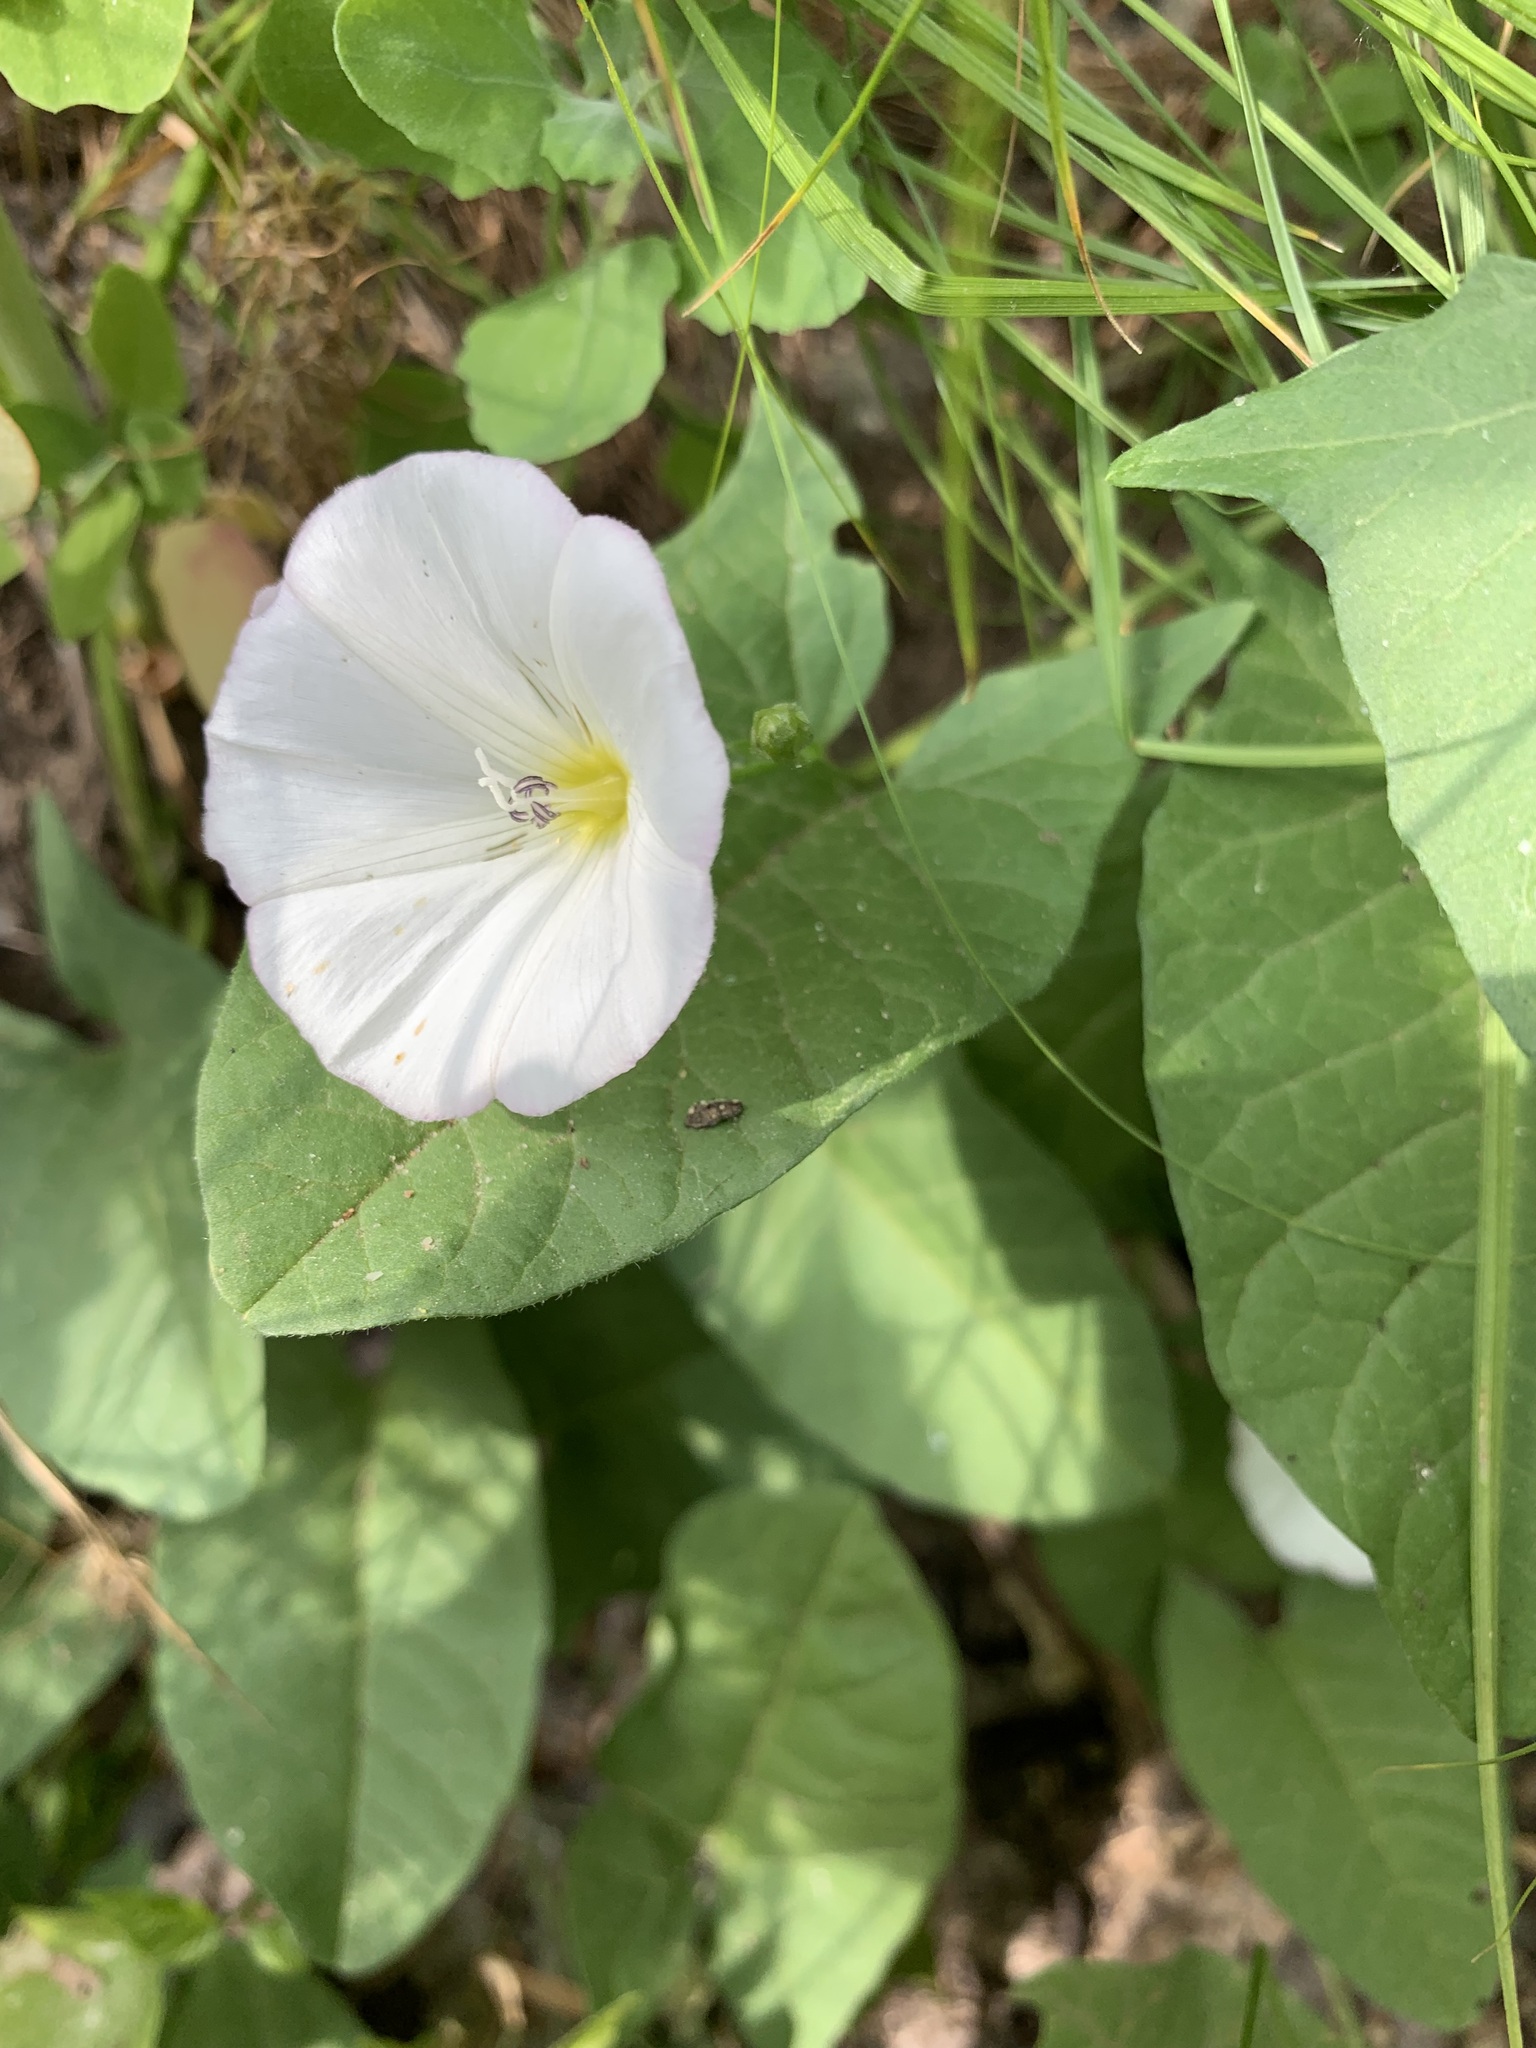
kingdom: Plantae
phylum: Tracheophyta
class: Magnoliopsida
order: Solanales
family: Convolvulaceae
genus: Convolvulus
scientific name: Convolvulus arvensis
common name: Field bindweed
